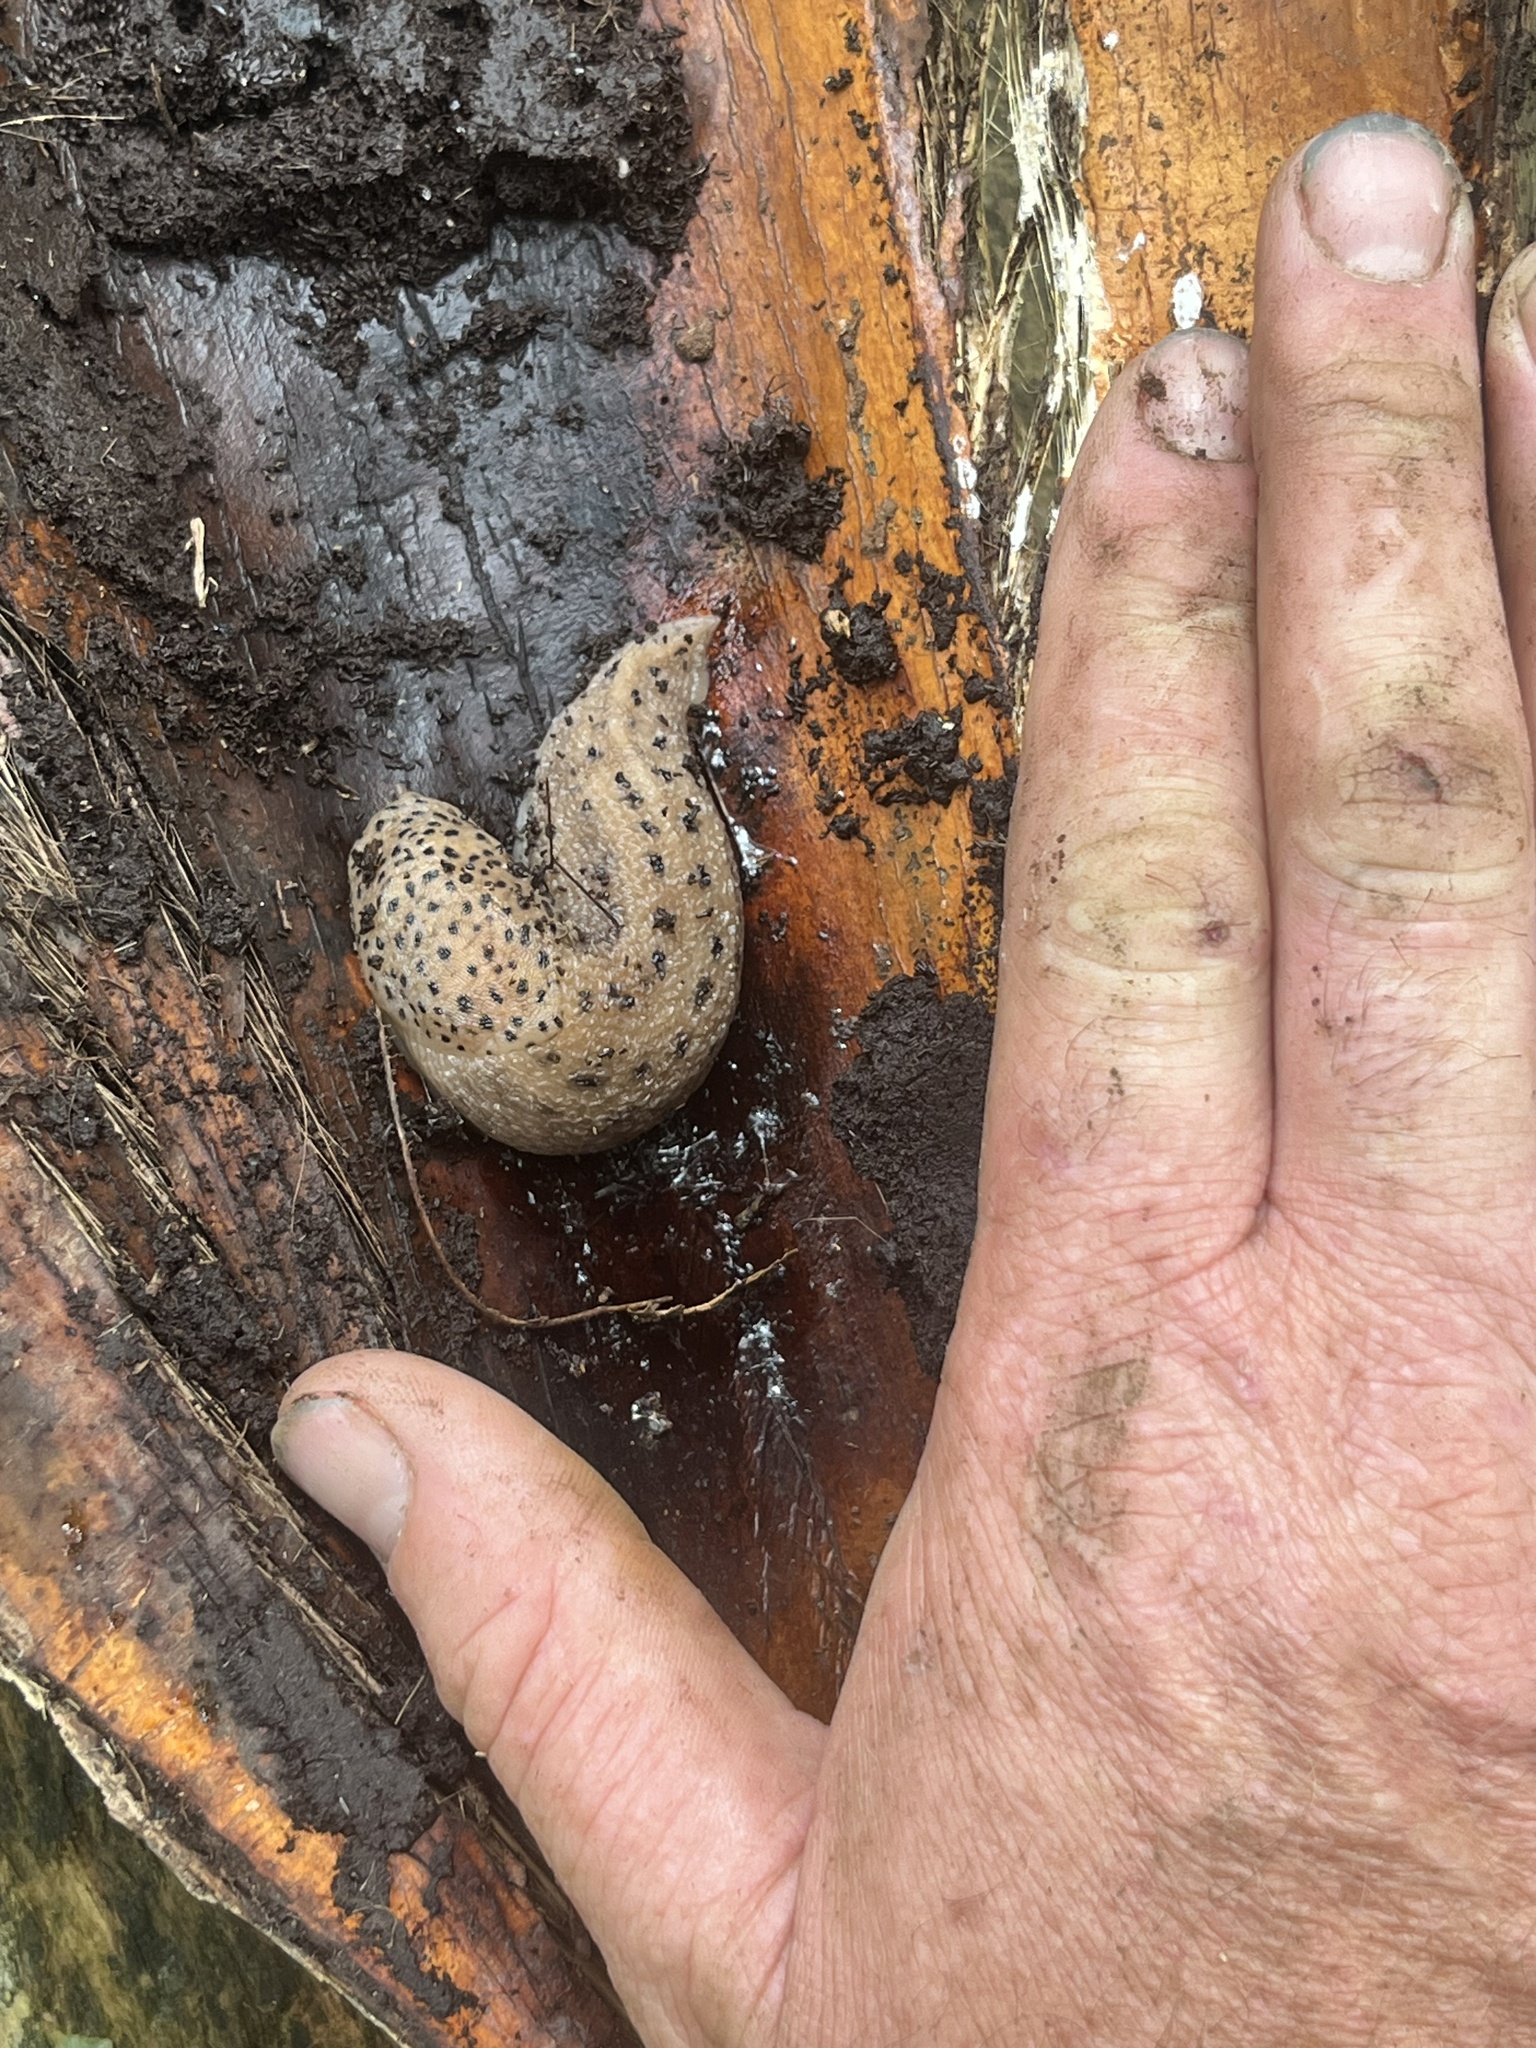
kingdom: Animalia
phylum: Mollusca
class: Gastropoda
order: Stylommatophora
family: Limacidae
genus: Limax
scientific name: Limax maximus
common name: Great grey slug
